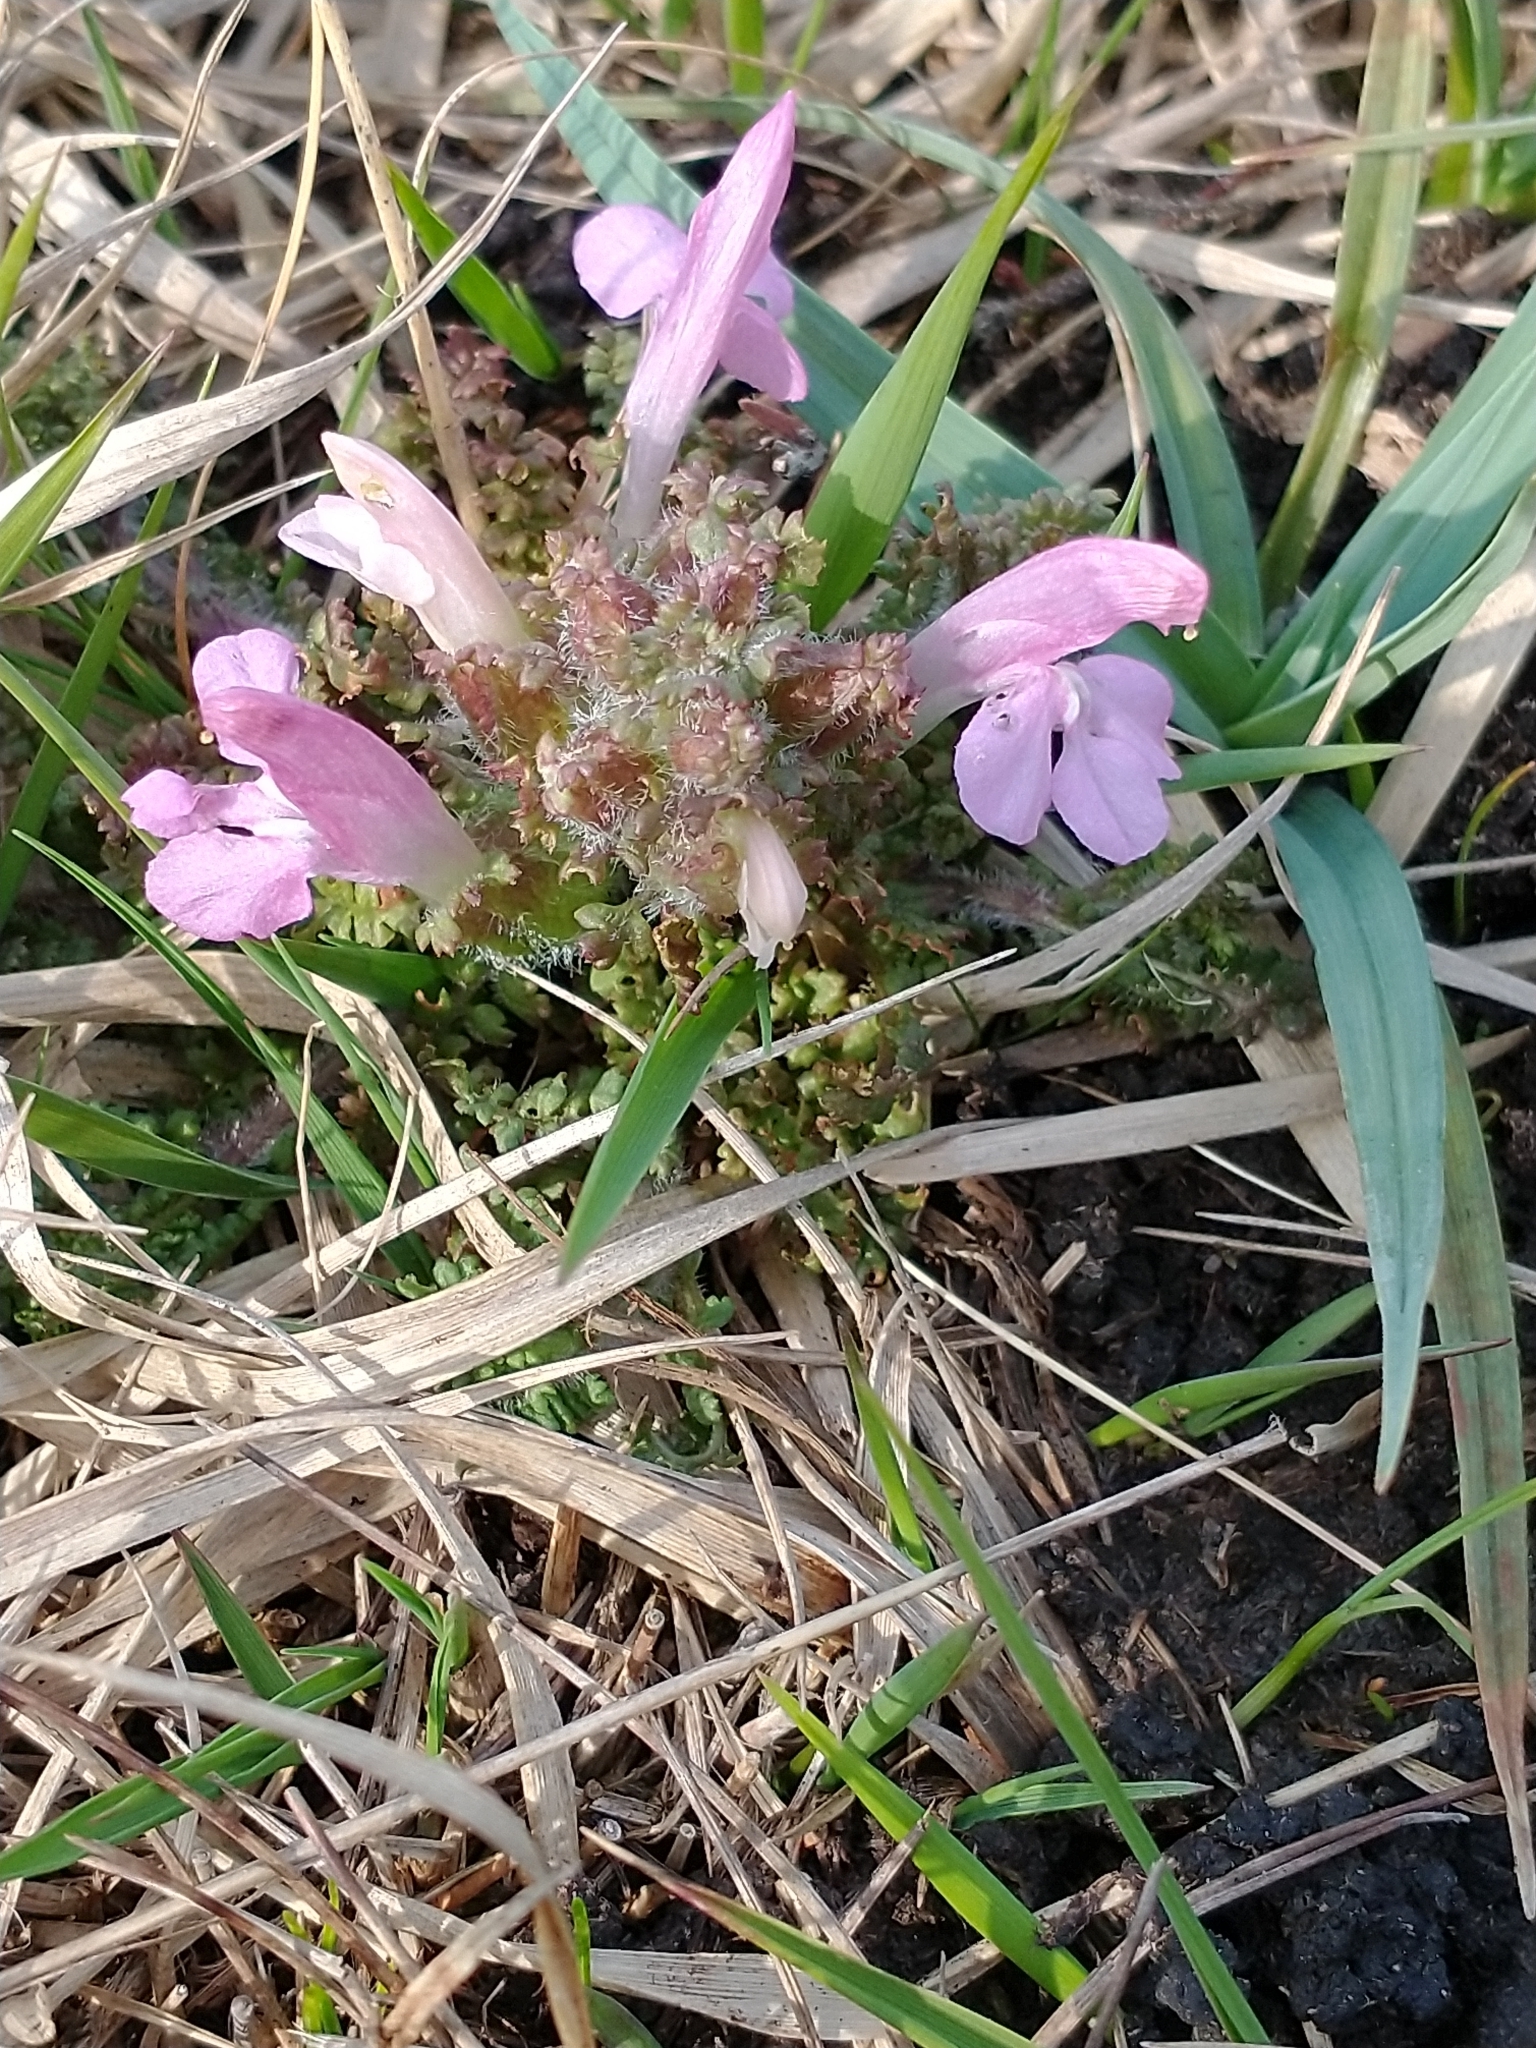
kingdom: Plantae
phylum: Tracheophyta
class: Magnoliopsida
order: Lamiales
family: Orobanchaceae
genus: Pedicularis
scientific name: Pedicularis sylvatica
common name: Lousewort
